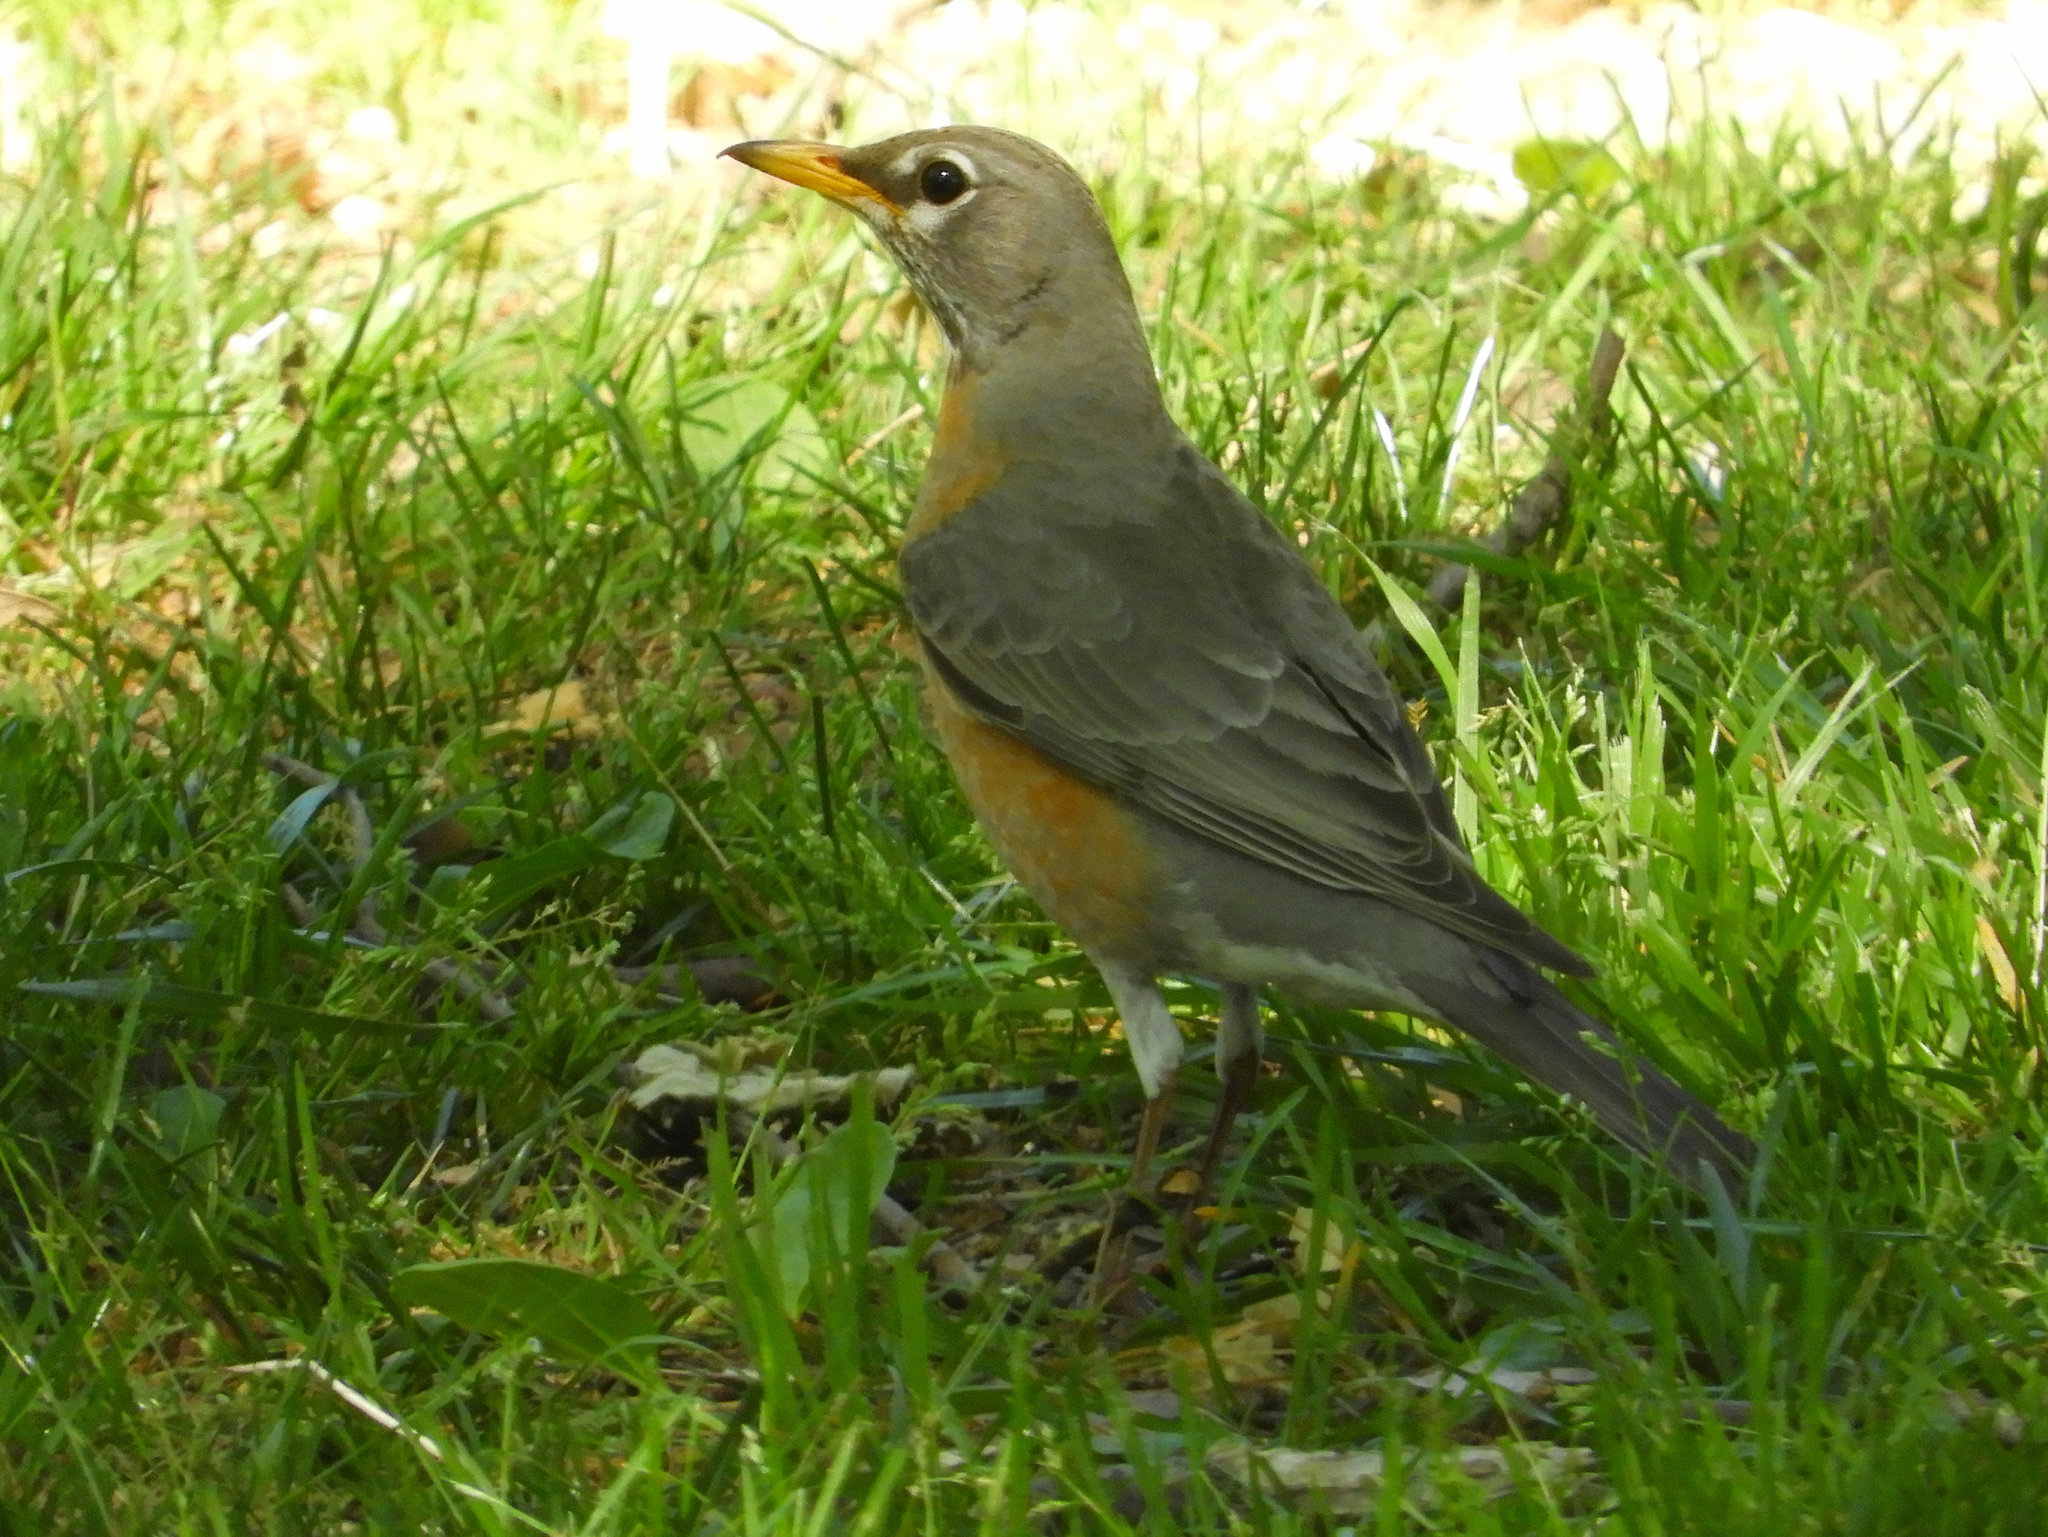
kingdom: Animalia
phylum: Chordata
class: Aves
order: Passeriformes
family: Turdidae
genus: Turdus
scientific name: Turdus migratorius
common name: American robin
